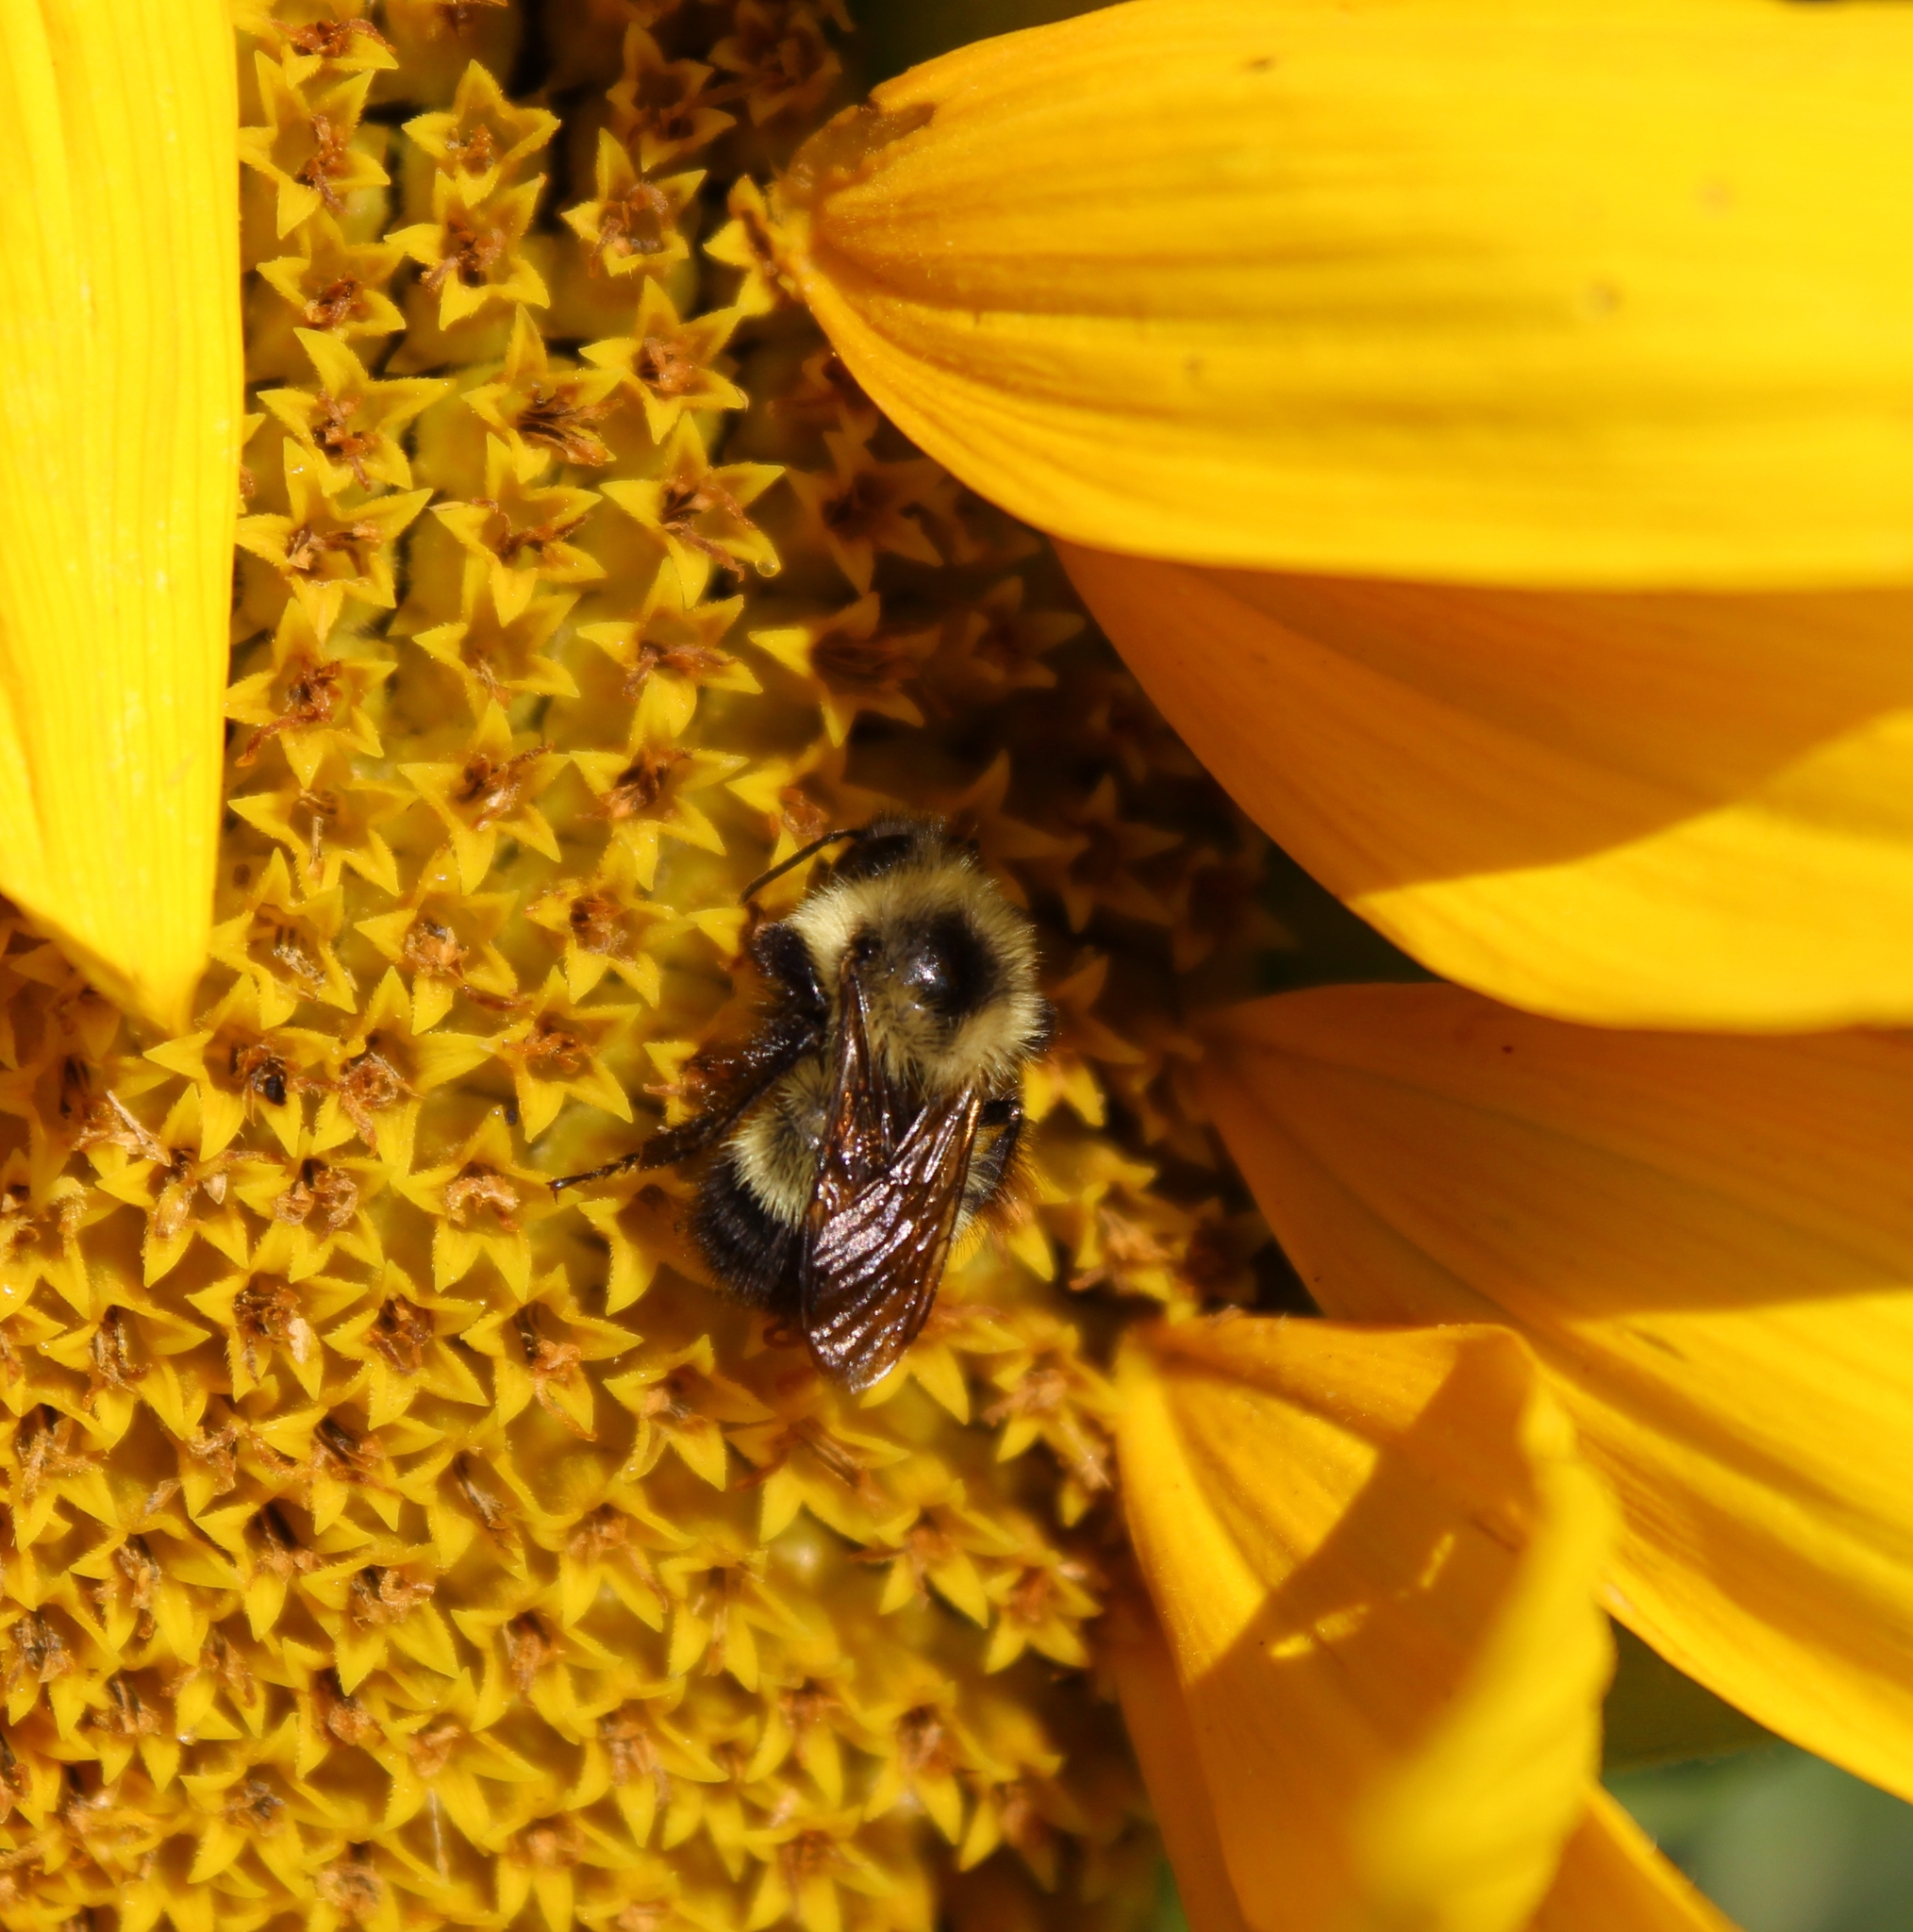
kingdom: Animalia
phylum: Arthropoda
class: Insecta
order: Hymenoptera
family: Apidae
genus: Bombus
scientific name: Bombus vagans
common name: Half-black bumble bee
